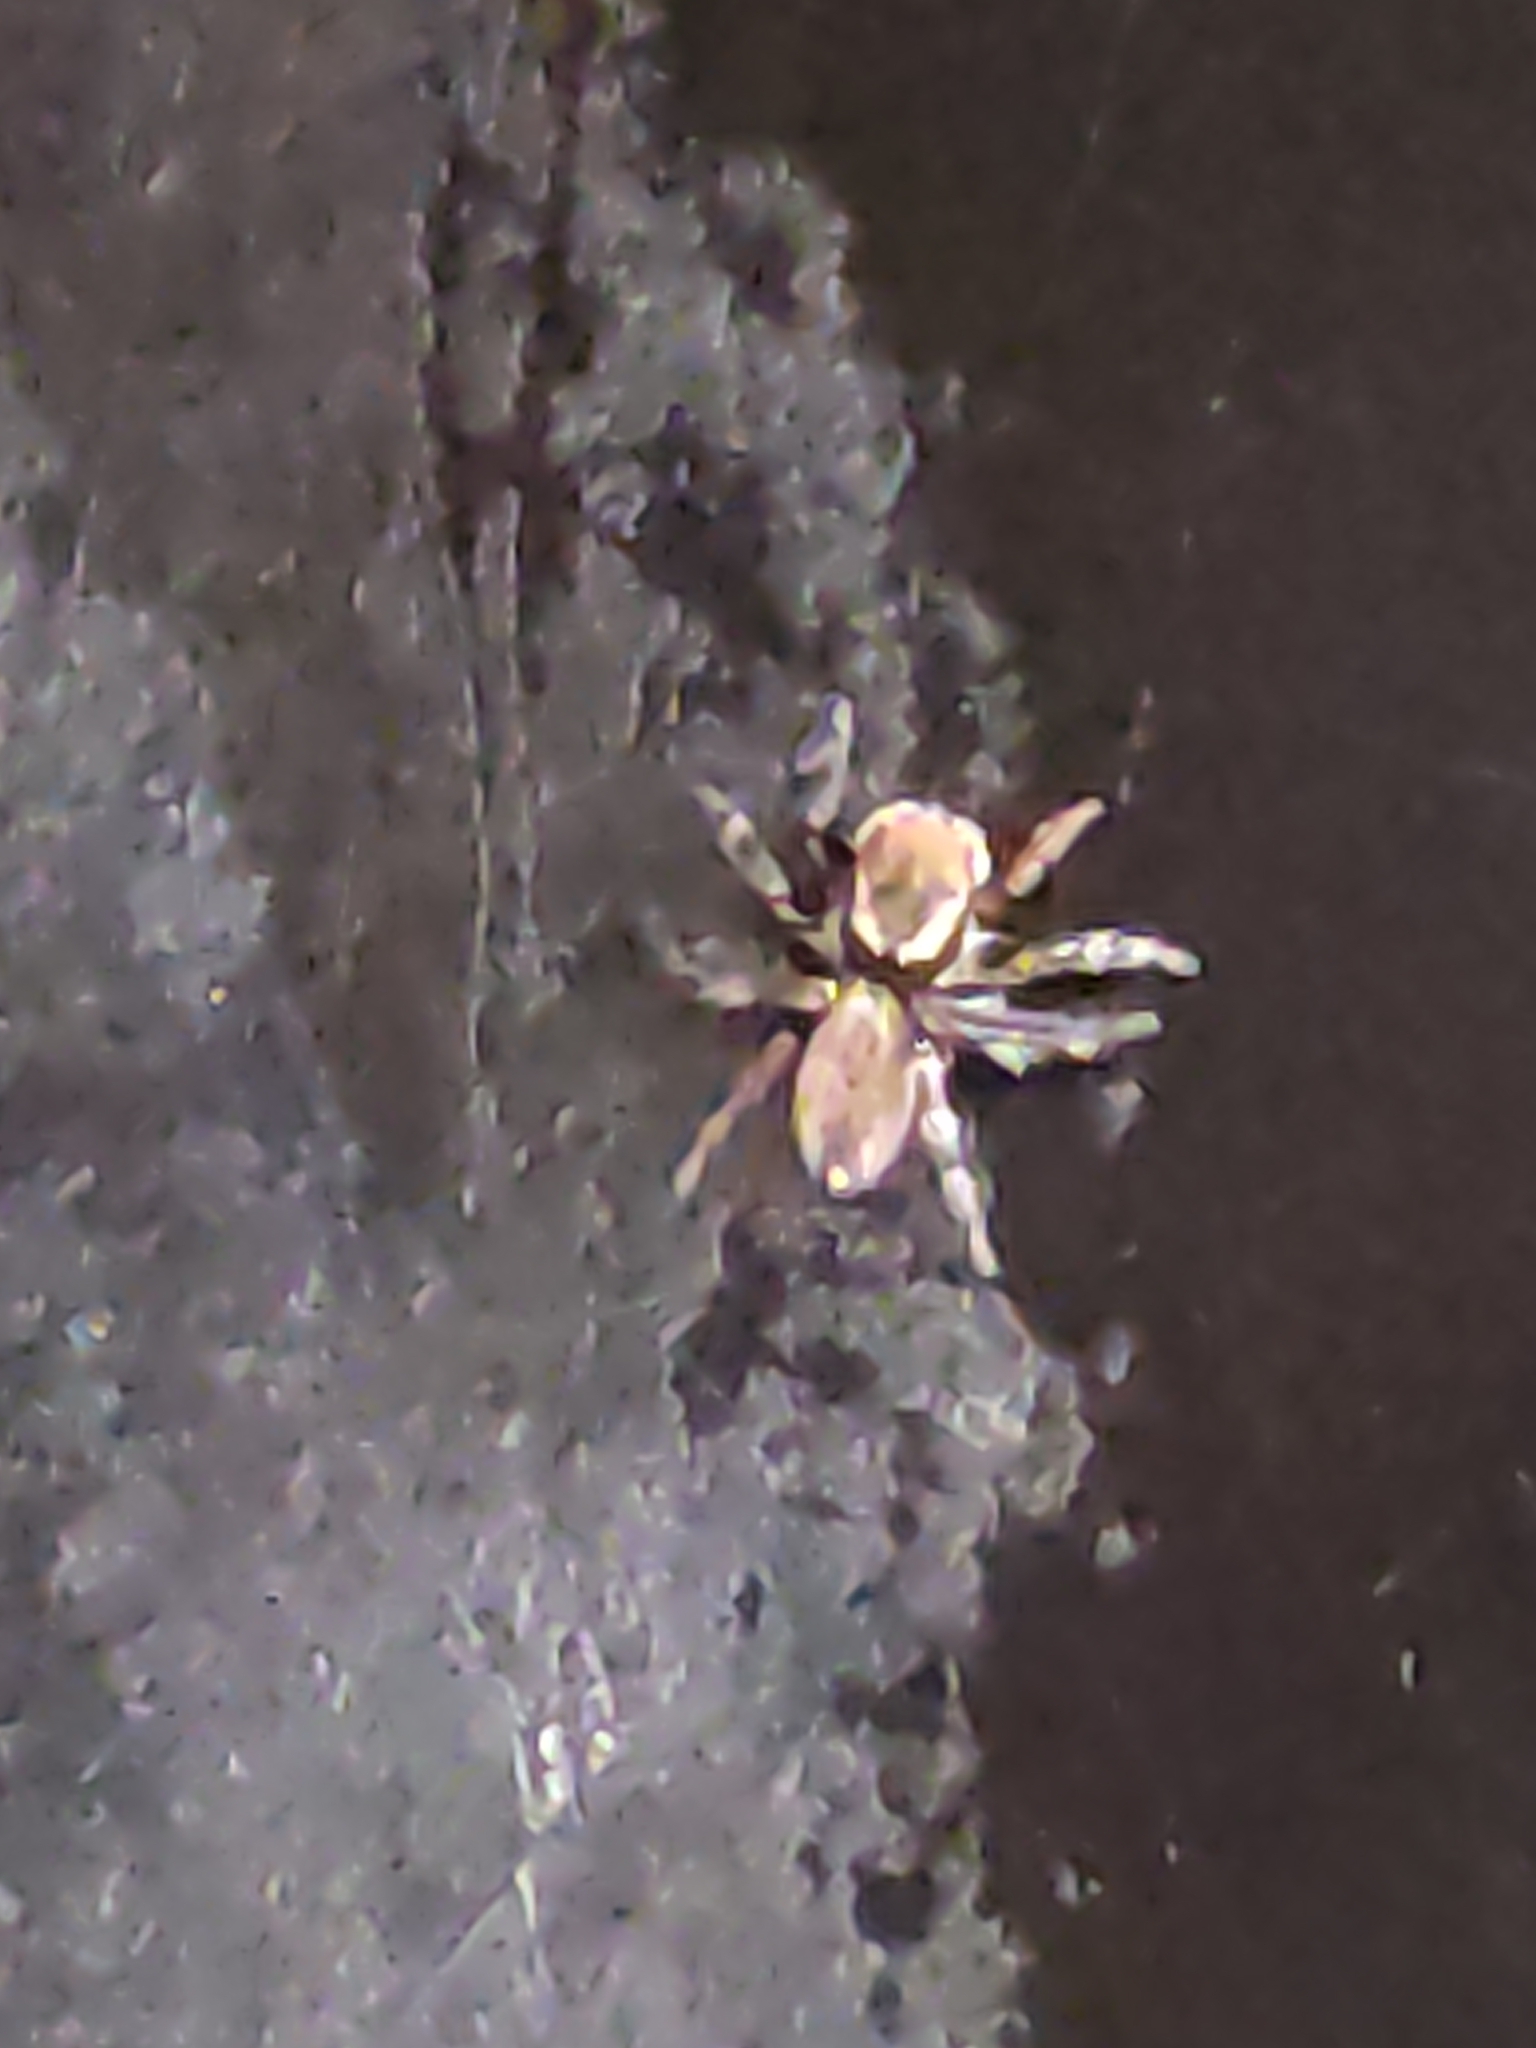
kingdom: Animalia
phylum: Arthropoda
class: Arachnida
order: Araneae
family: Salticidae
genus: Maratus
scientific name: Maratus griseus
